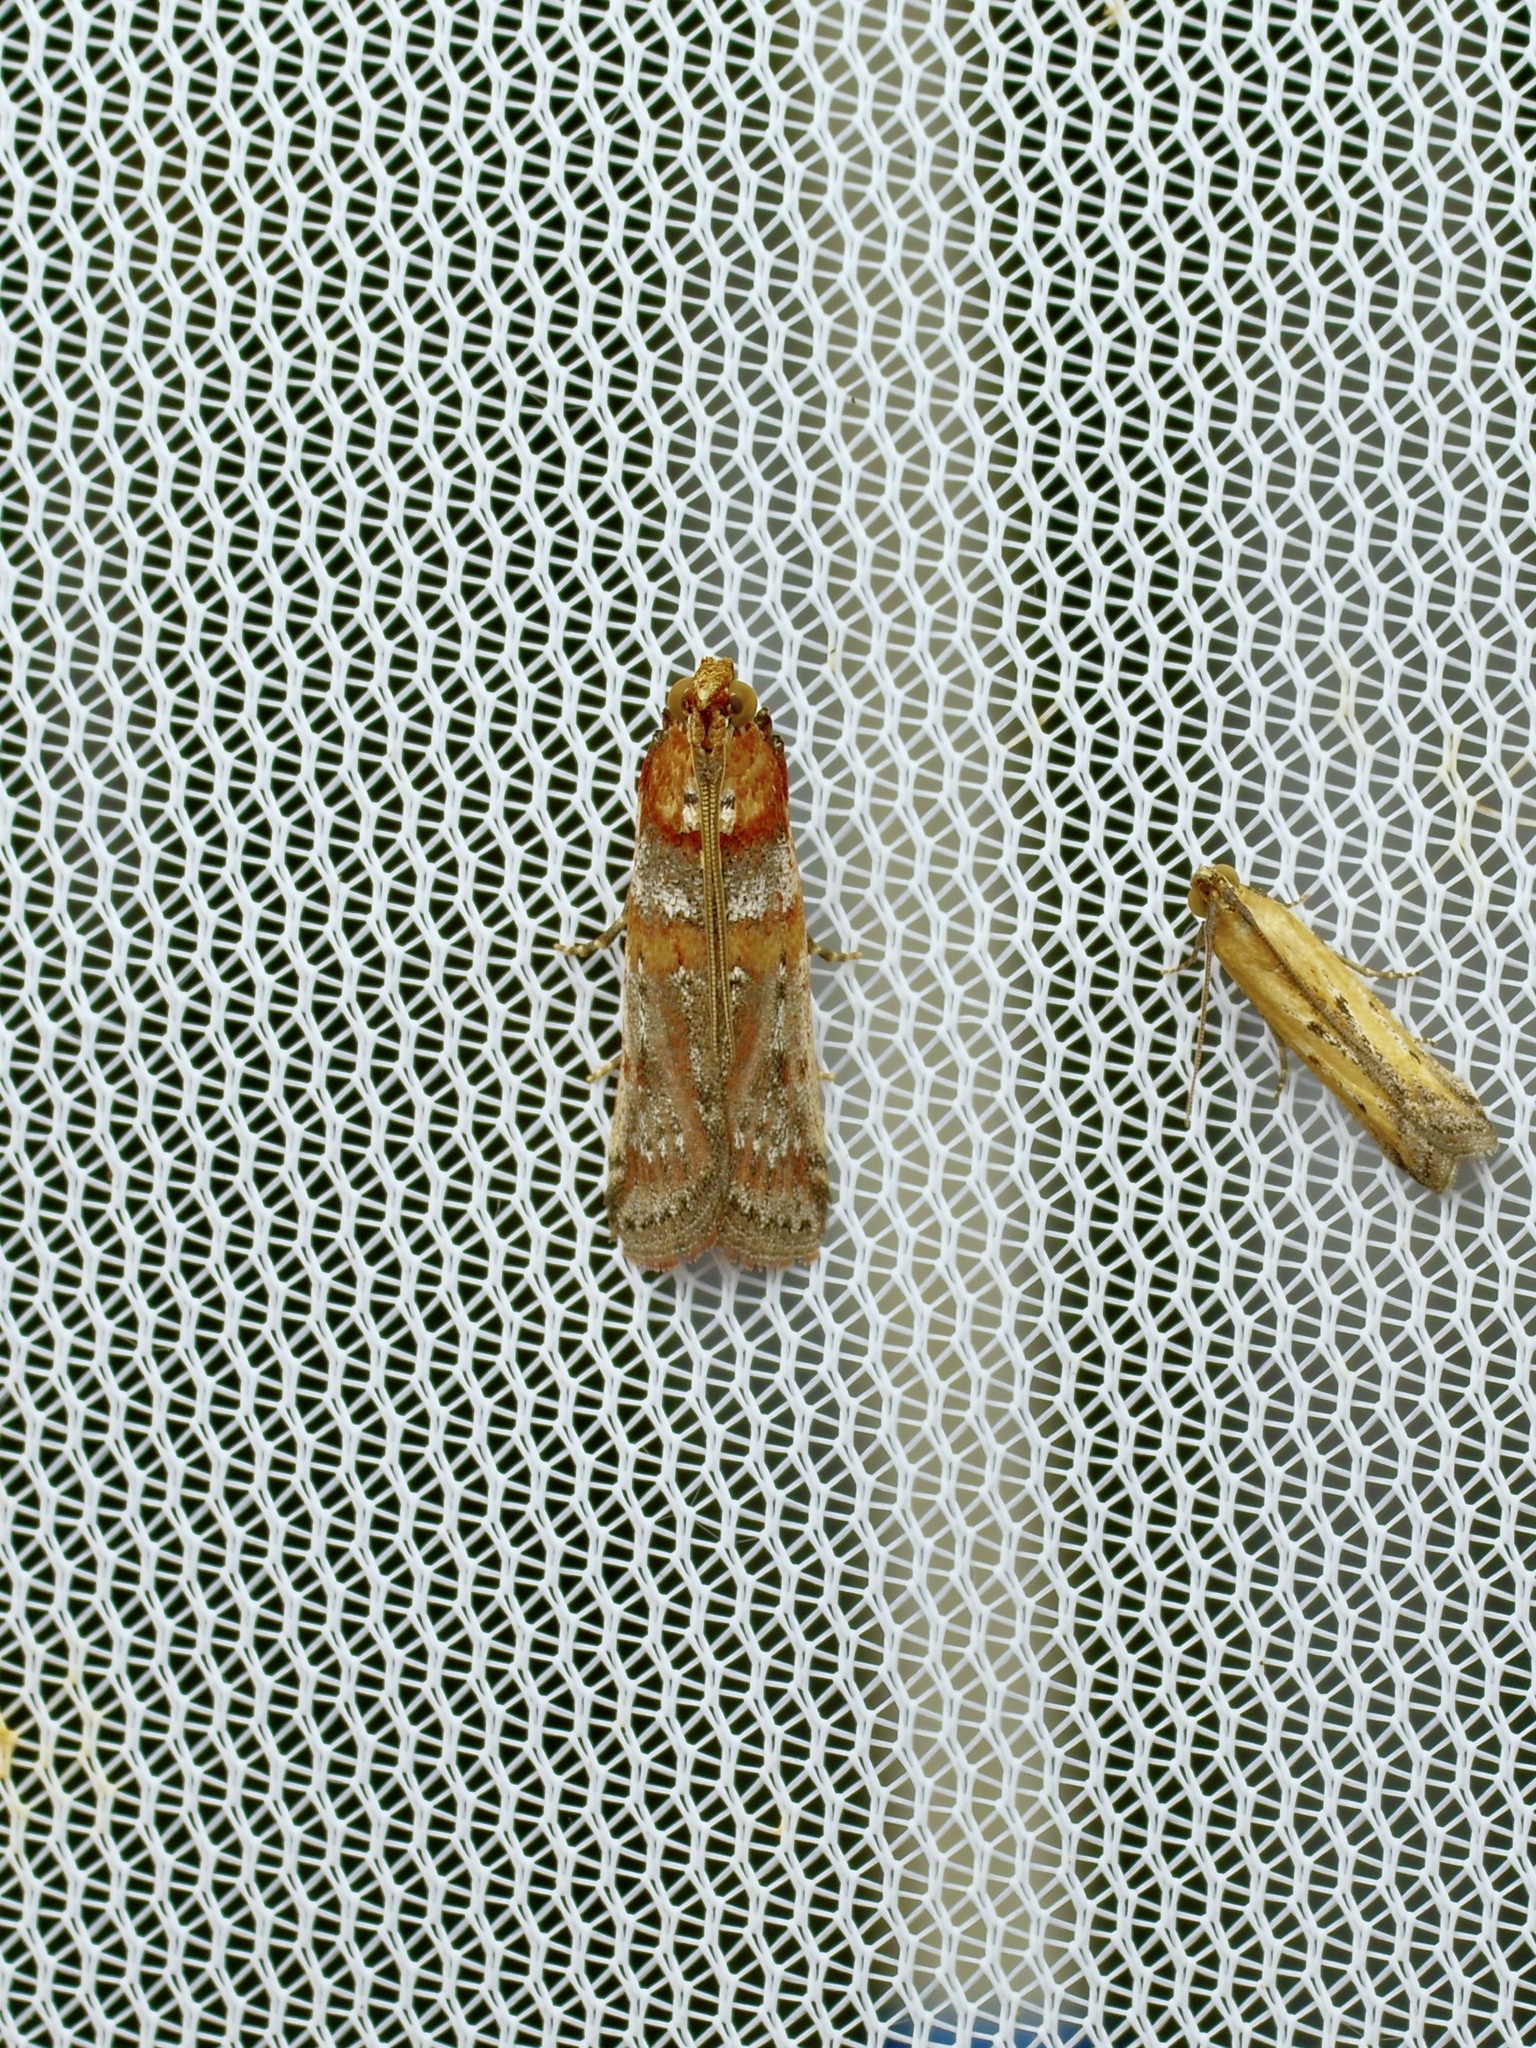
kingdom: Animalia
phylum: Arthropoda
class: Insecta
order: Lepidoptera
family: Pyralidae
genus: Adelphia
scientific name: Adelphia petrella
